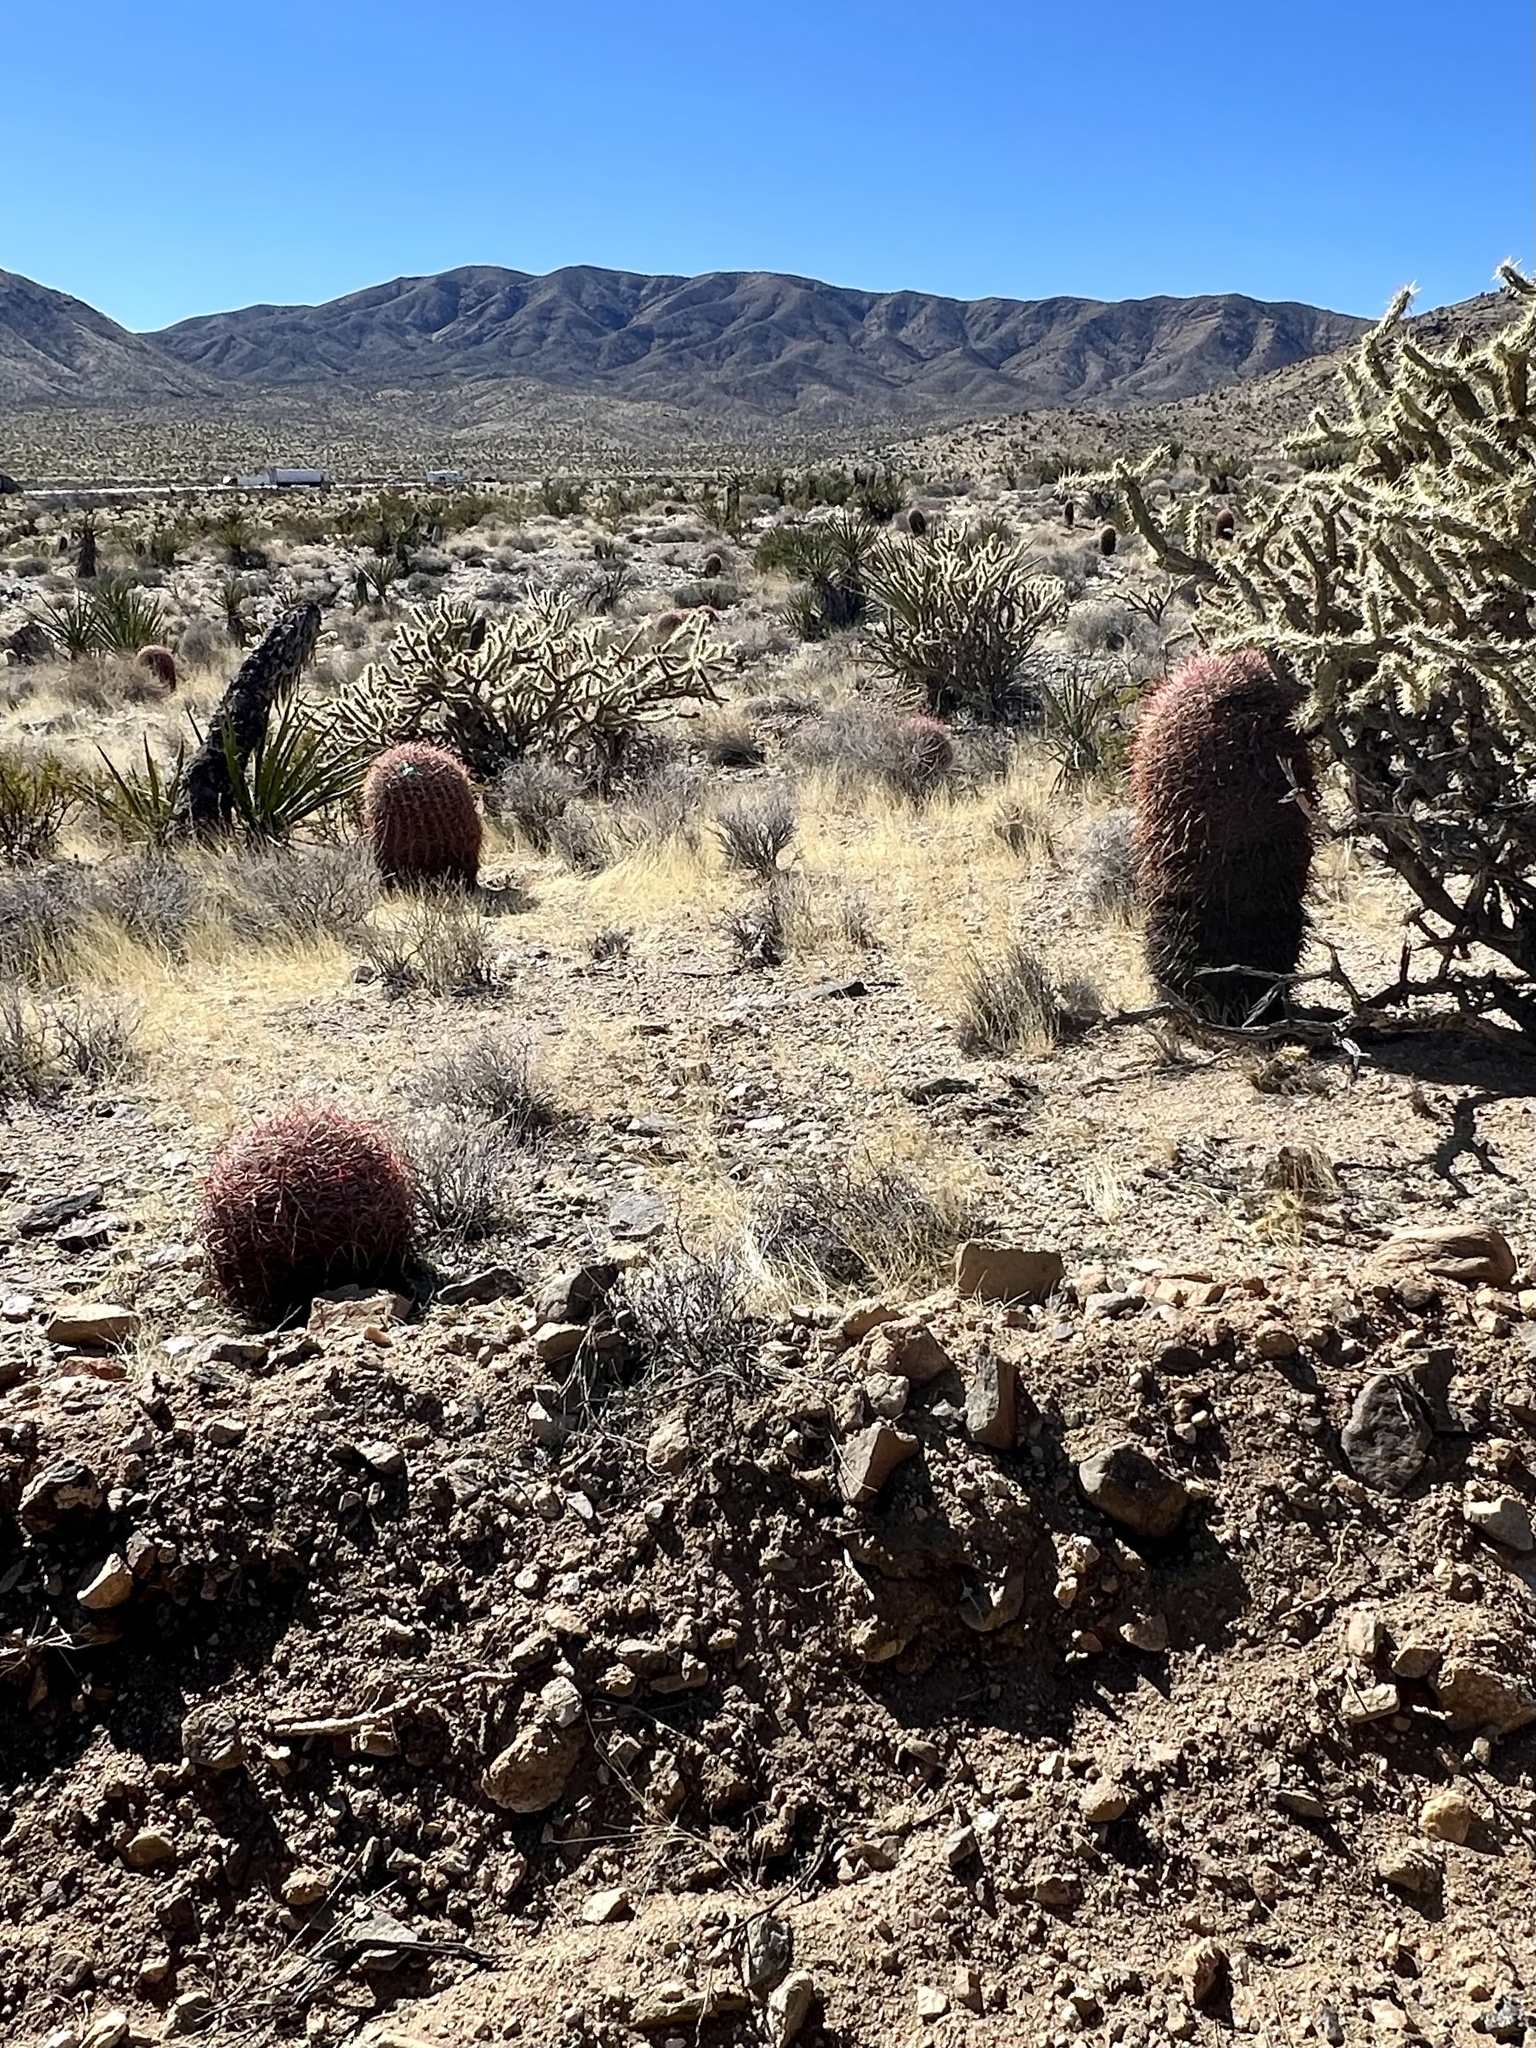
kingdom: Plantae
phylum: Tracheophyta
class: Magnoliopsida
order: Caryophyllales
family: Cactaceae
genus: Ferocactus
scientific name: Ferocactus cylindraceus
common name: California barrel cactus
